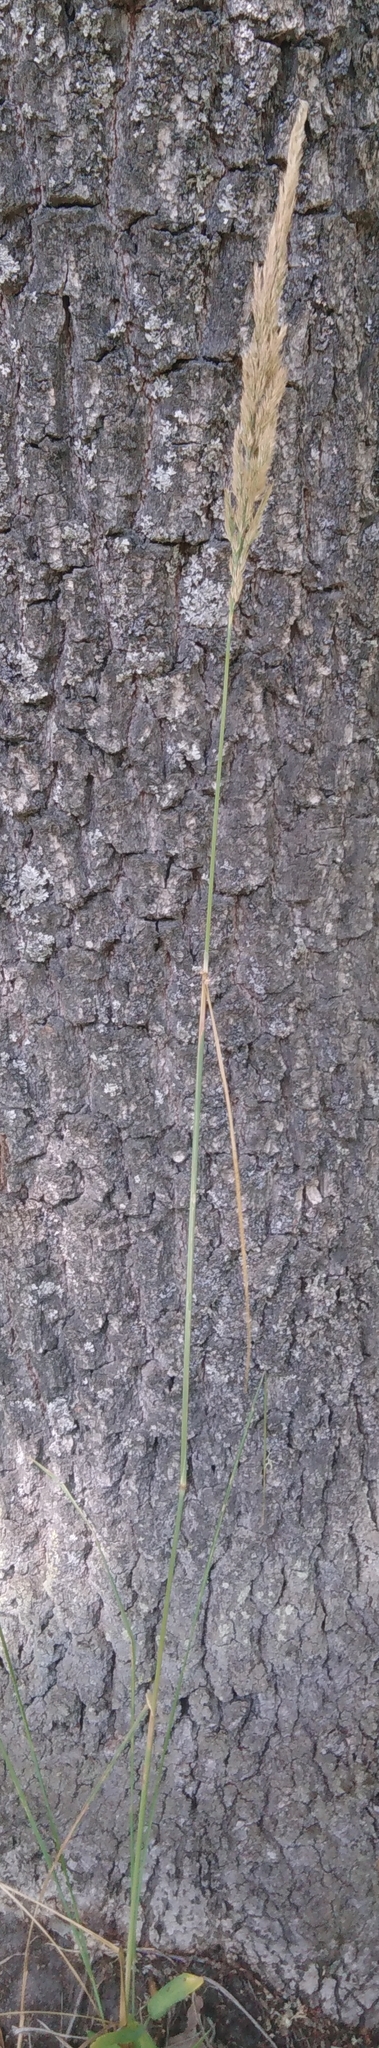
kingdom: Plantae
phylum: Tracheophyta
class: Liliopsida
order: Poales
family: Poaceae
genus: Calamagrostis
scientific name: Calamagrostis epigejos
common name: Wood small-reed
